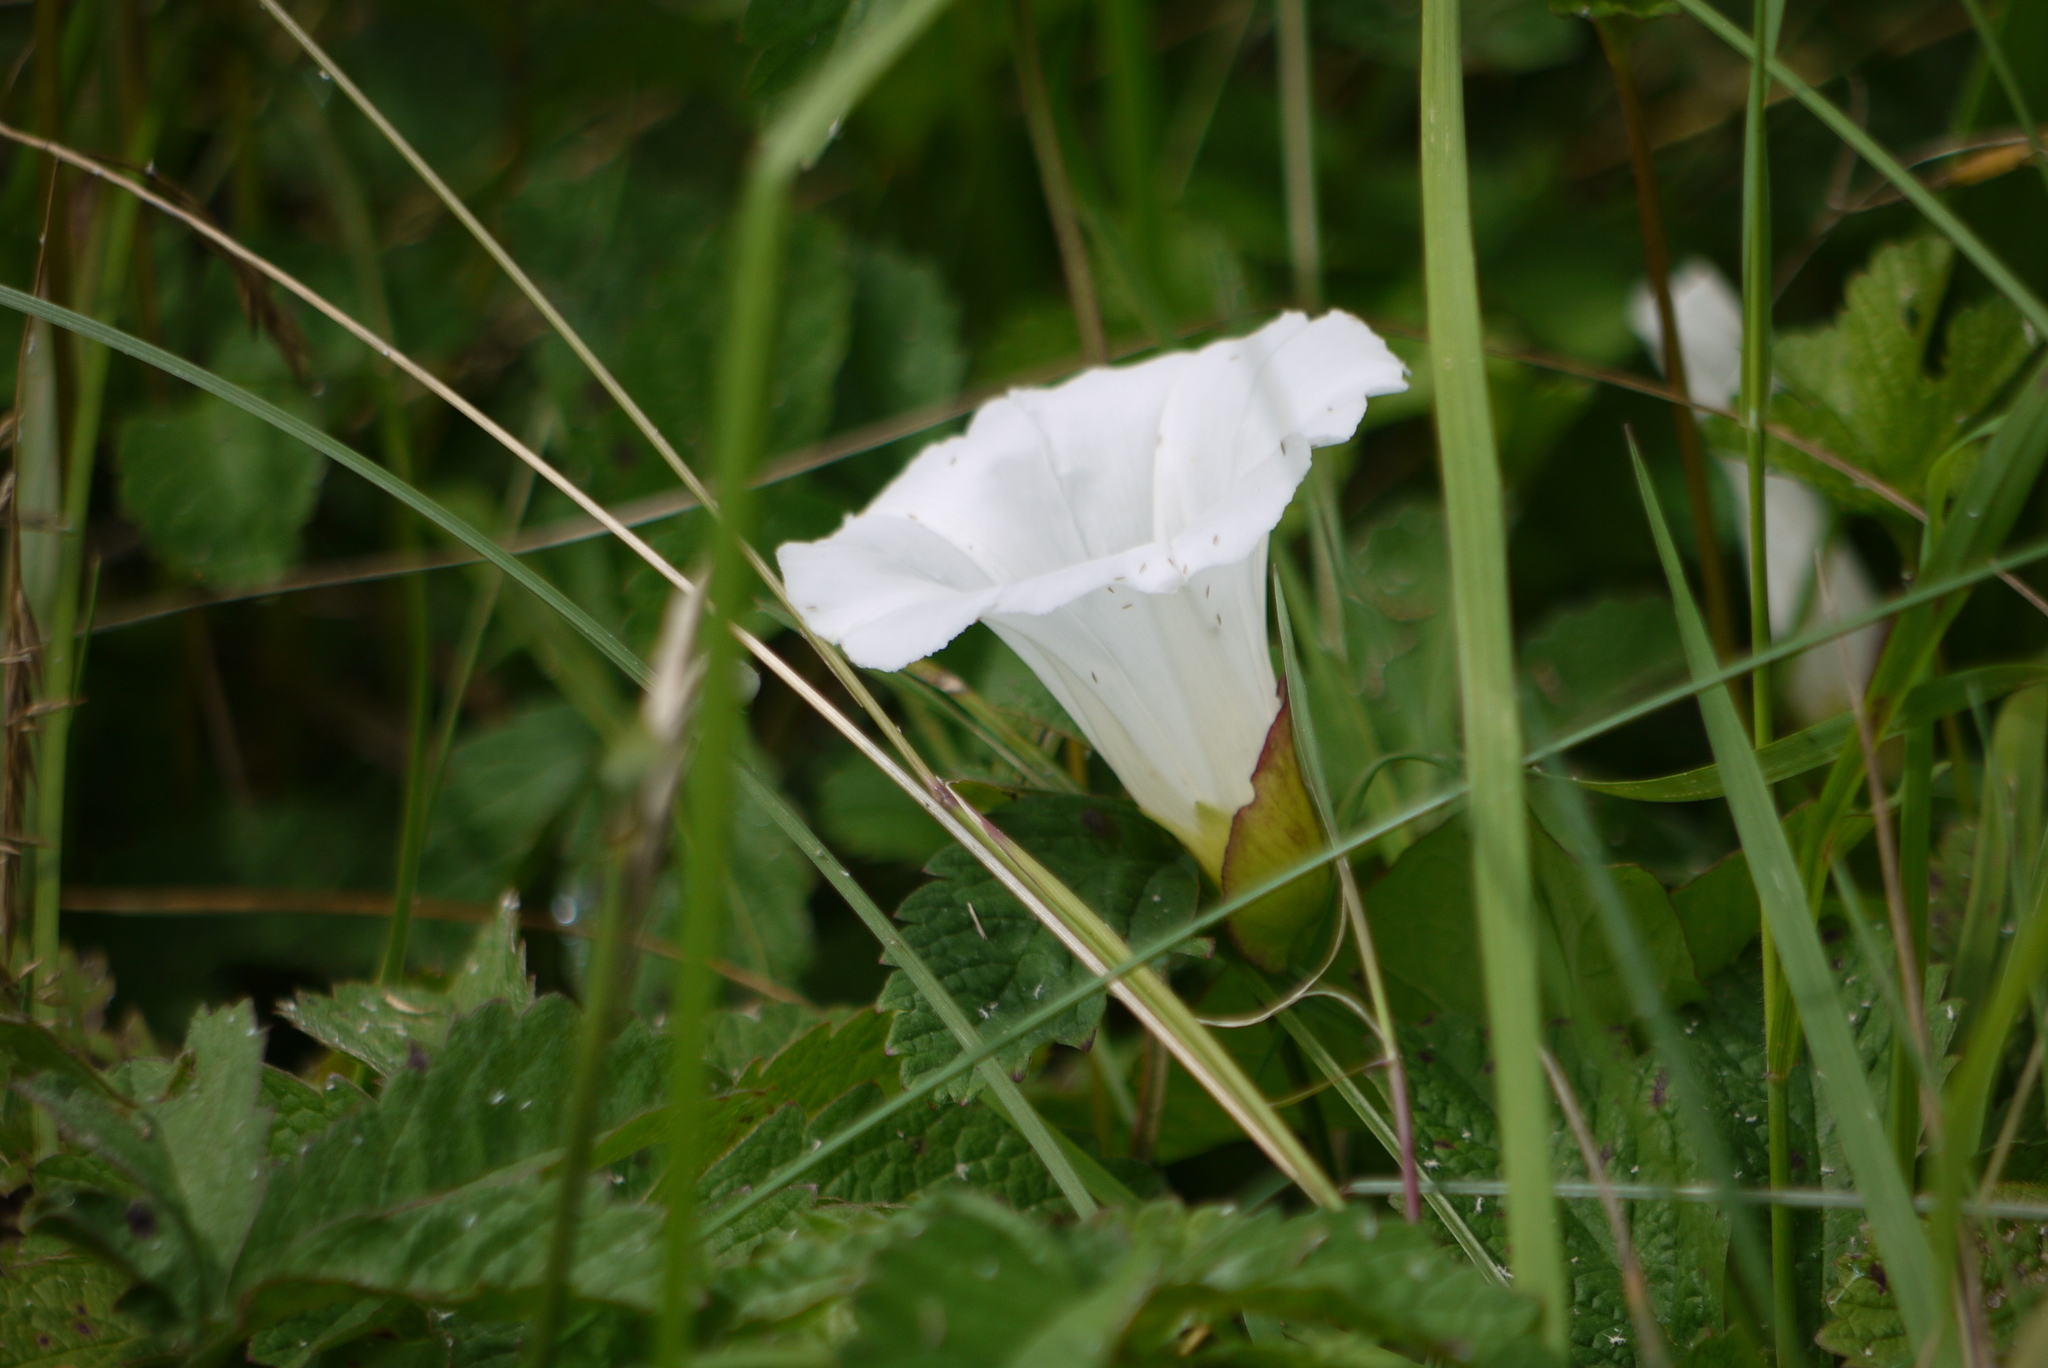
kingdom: Plantae
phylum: Tracheophyta
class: Magnoliopsida
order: Solanales
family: Convolvulaceae
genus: Calystegia
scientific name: Calystegia sepium
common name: Hedge bindweed
